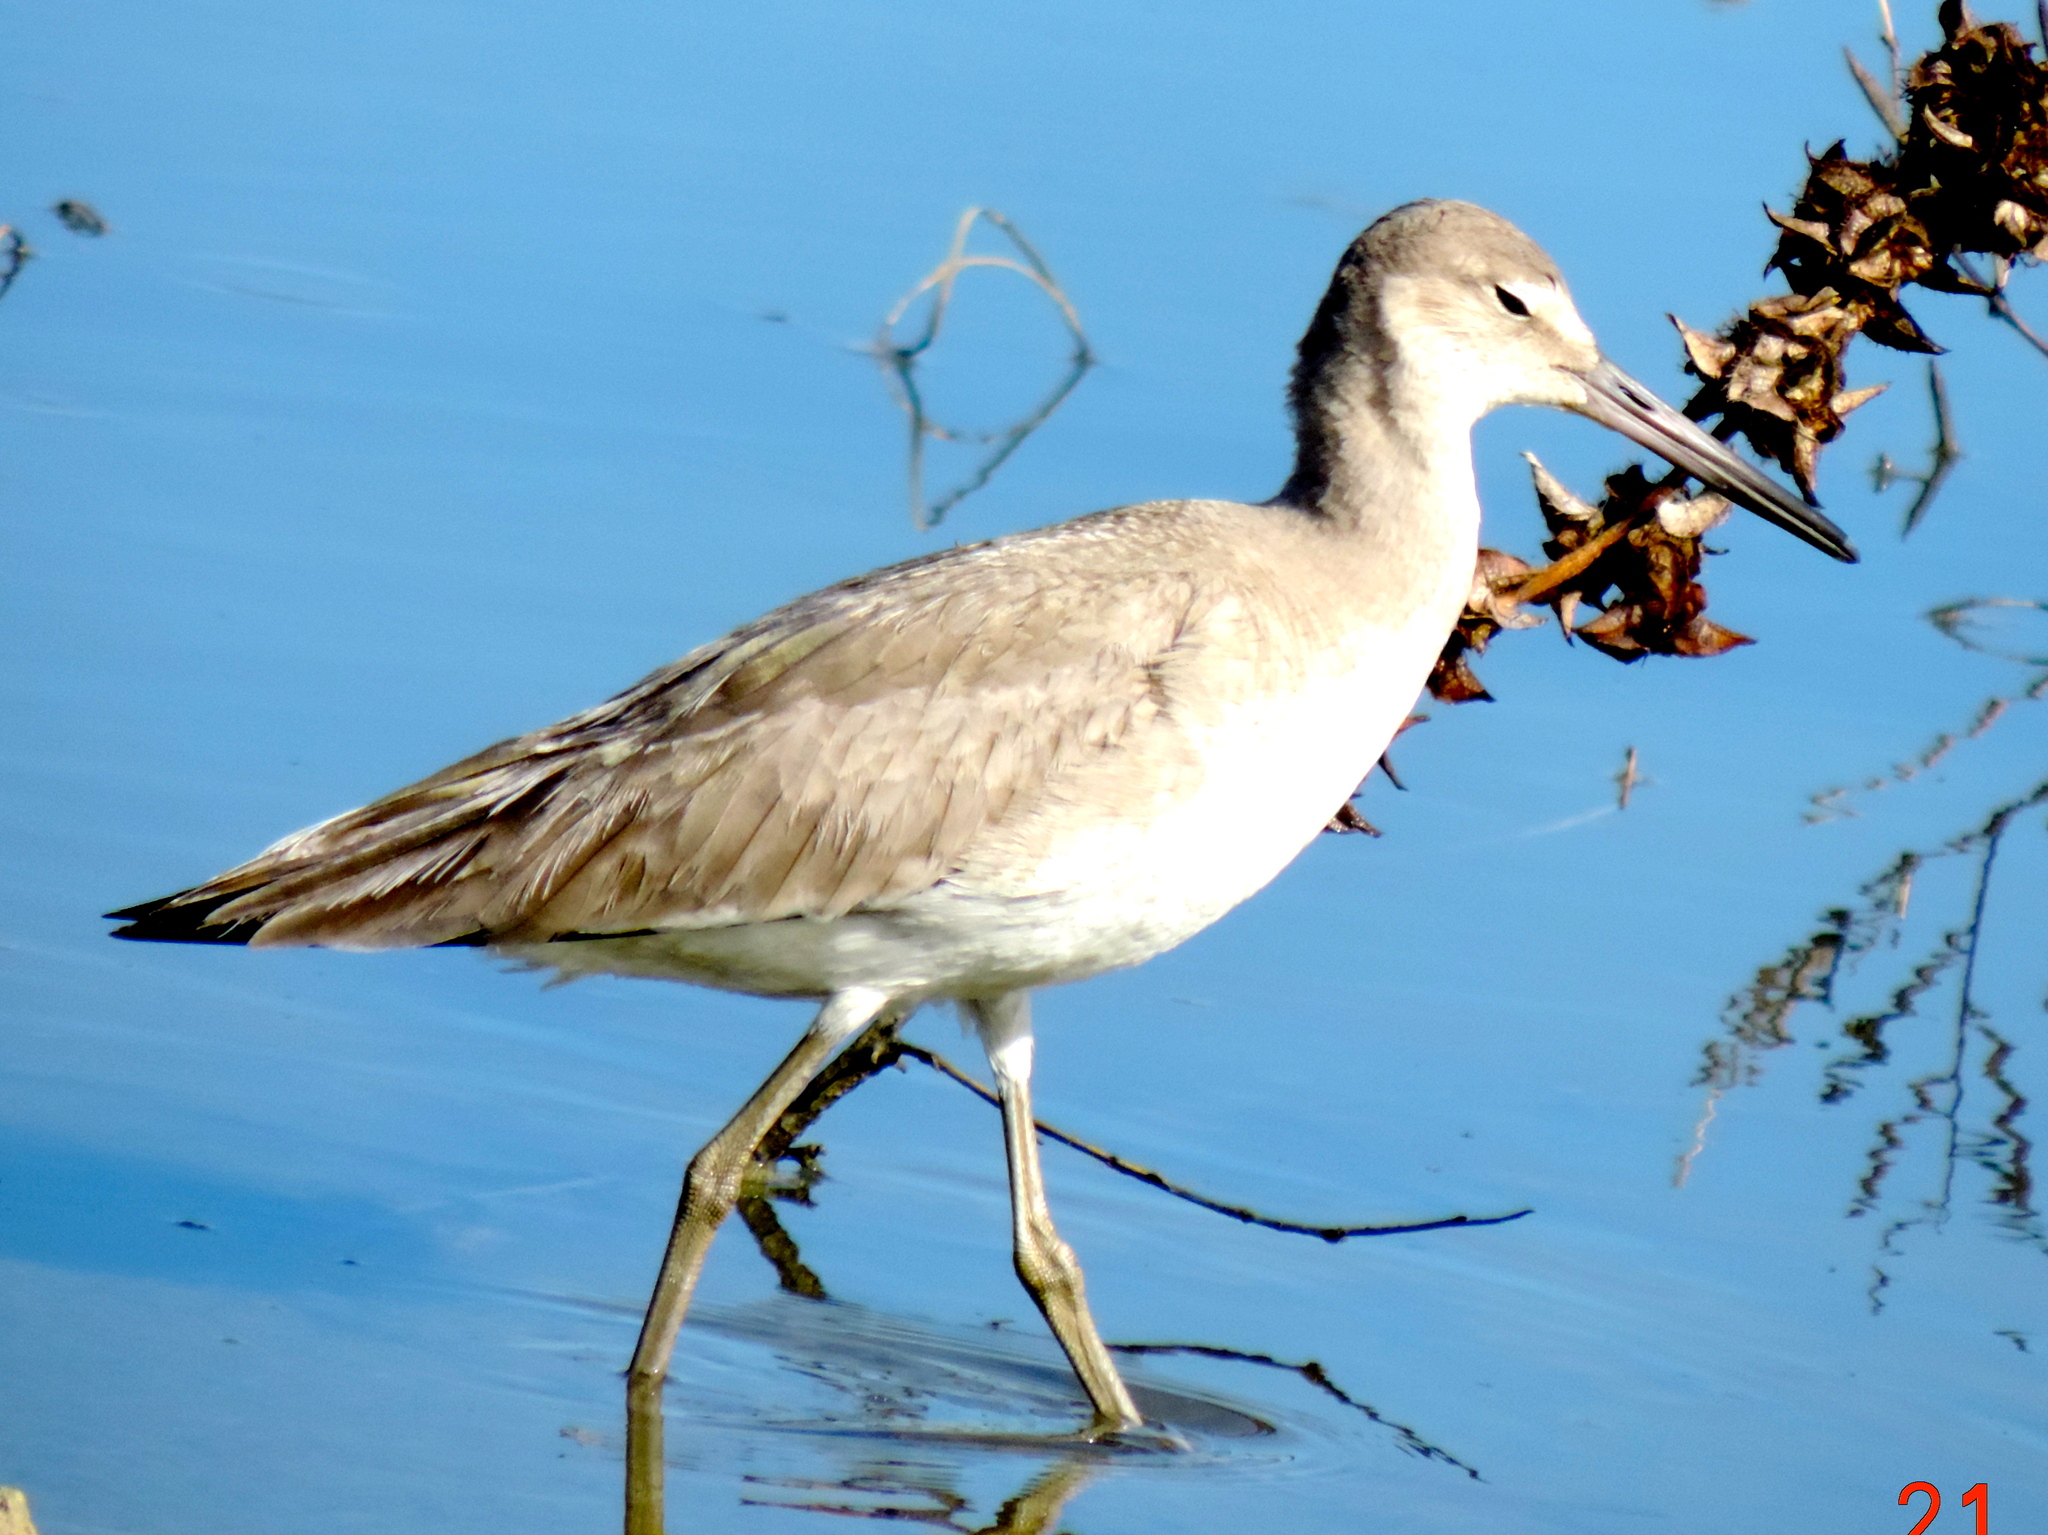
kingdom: Animalia
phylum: Chordata
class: Aves
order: Charadriiformes
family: Scolopacidae
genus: Tringa
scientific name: Tringa semipalmata
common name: Willet
